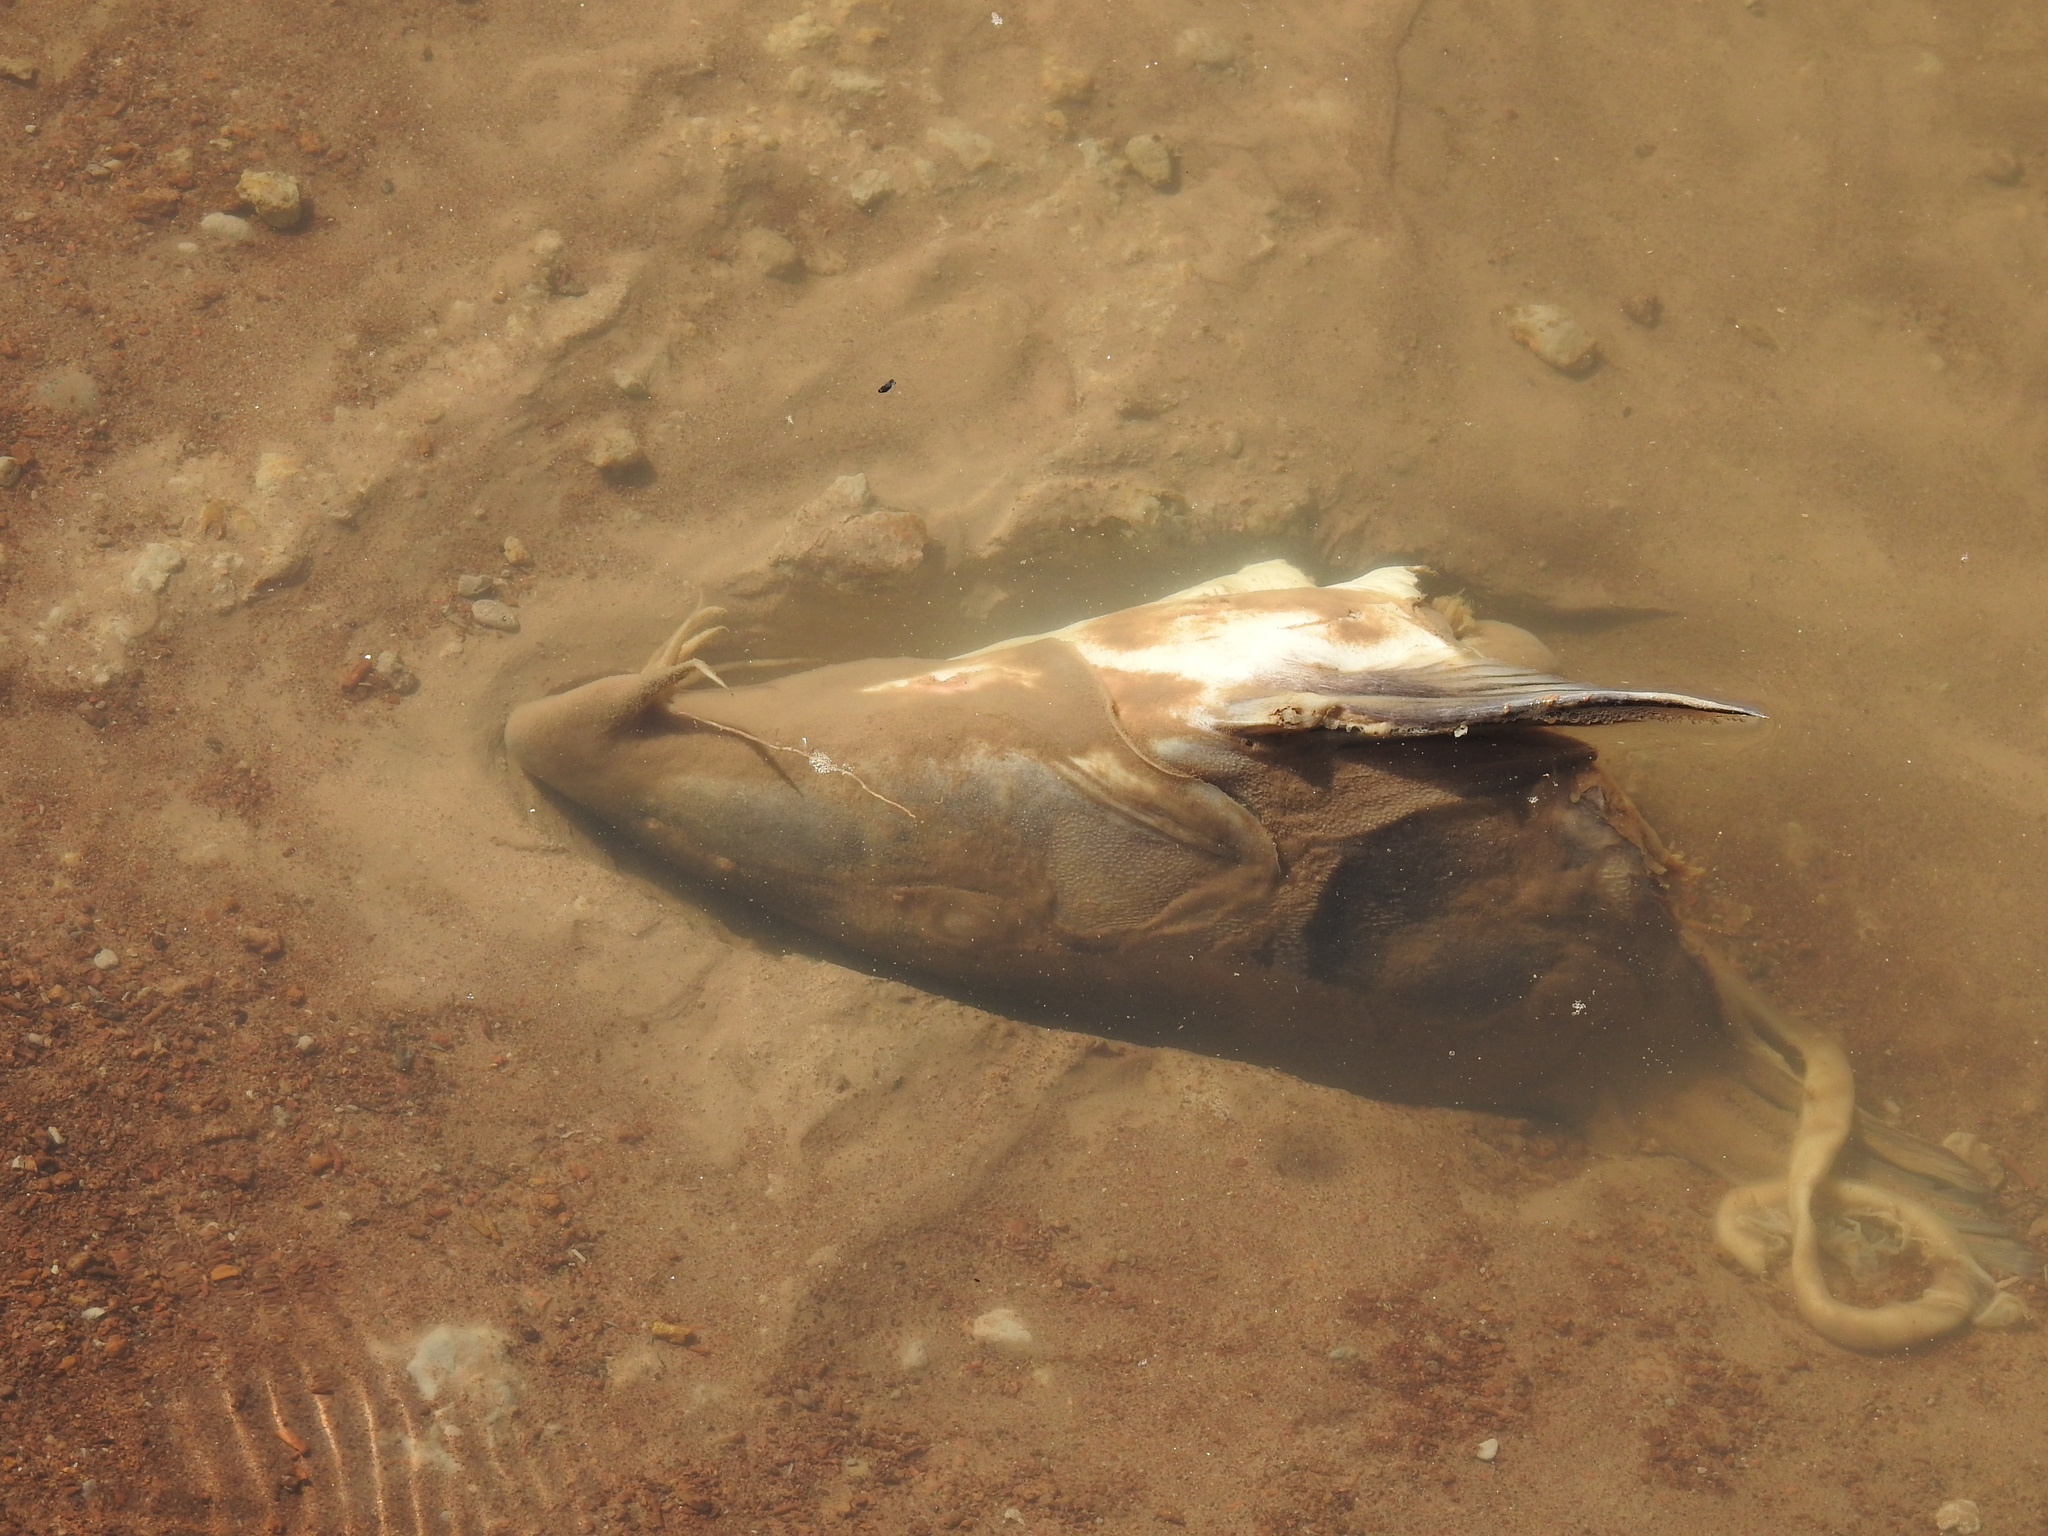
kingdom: Animalia
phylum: Chordata
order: Siluriformes
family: Doradidae
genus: Oxydoras
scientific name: Oxydoras kneri
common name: Catfish
